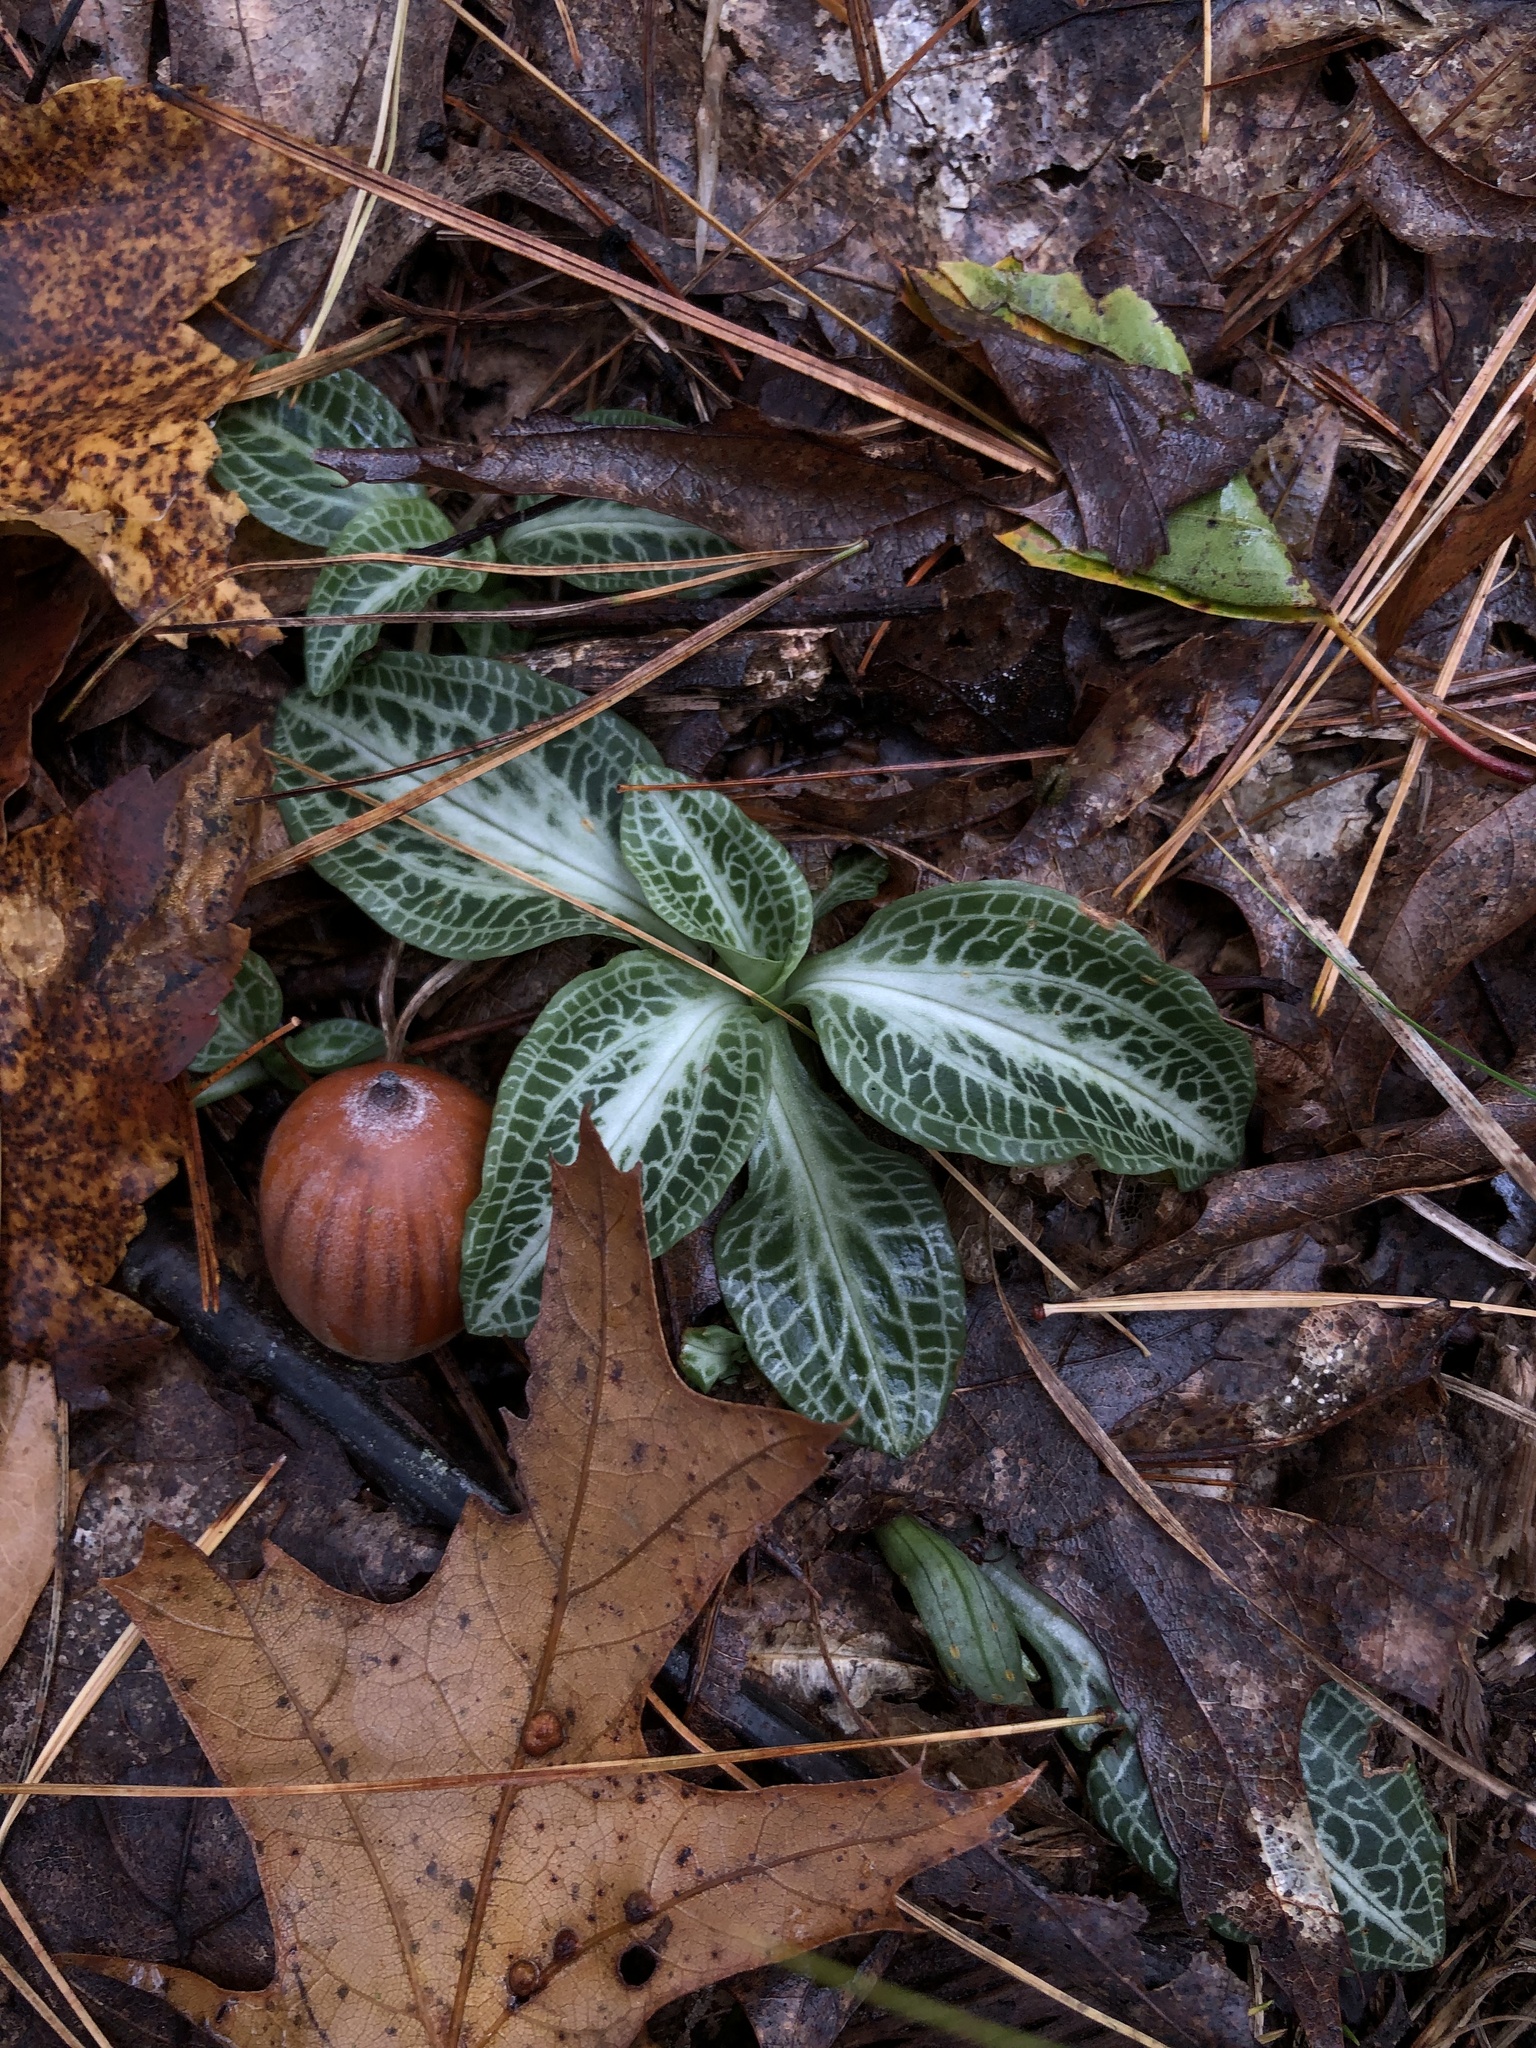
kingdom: Plantae
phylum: Tracheophyta
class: Liliopsida
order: Asparagales
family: Orchidaceae
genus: Goodyera
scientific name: Goodyera pubescens
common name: Downy rattlesnake-plantain
